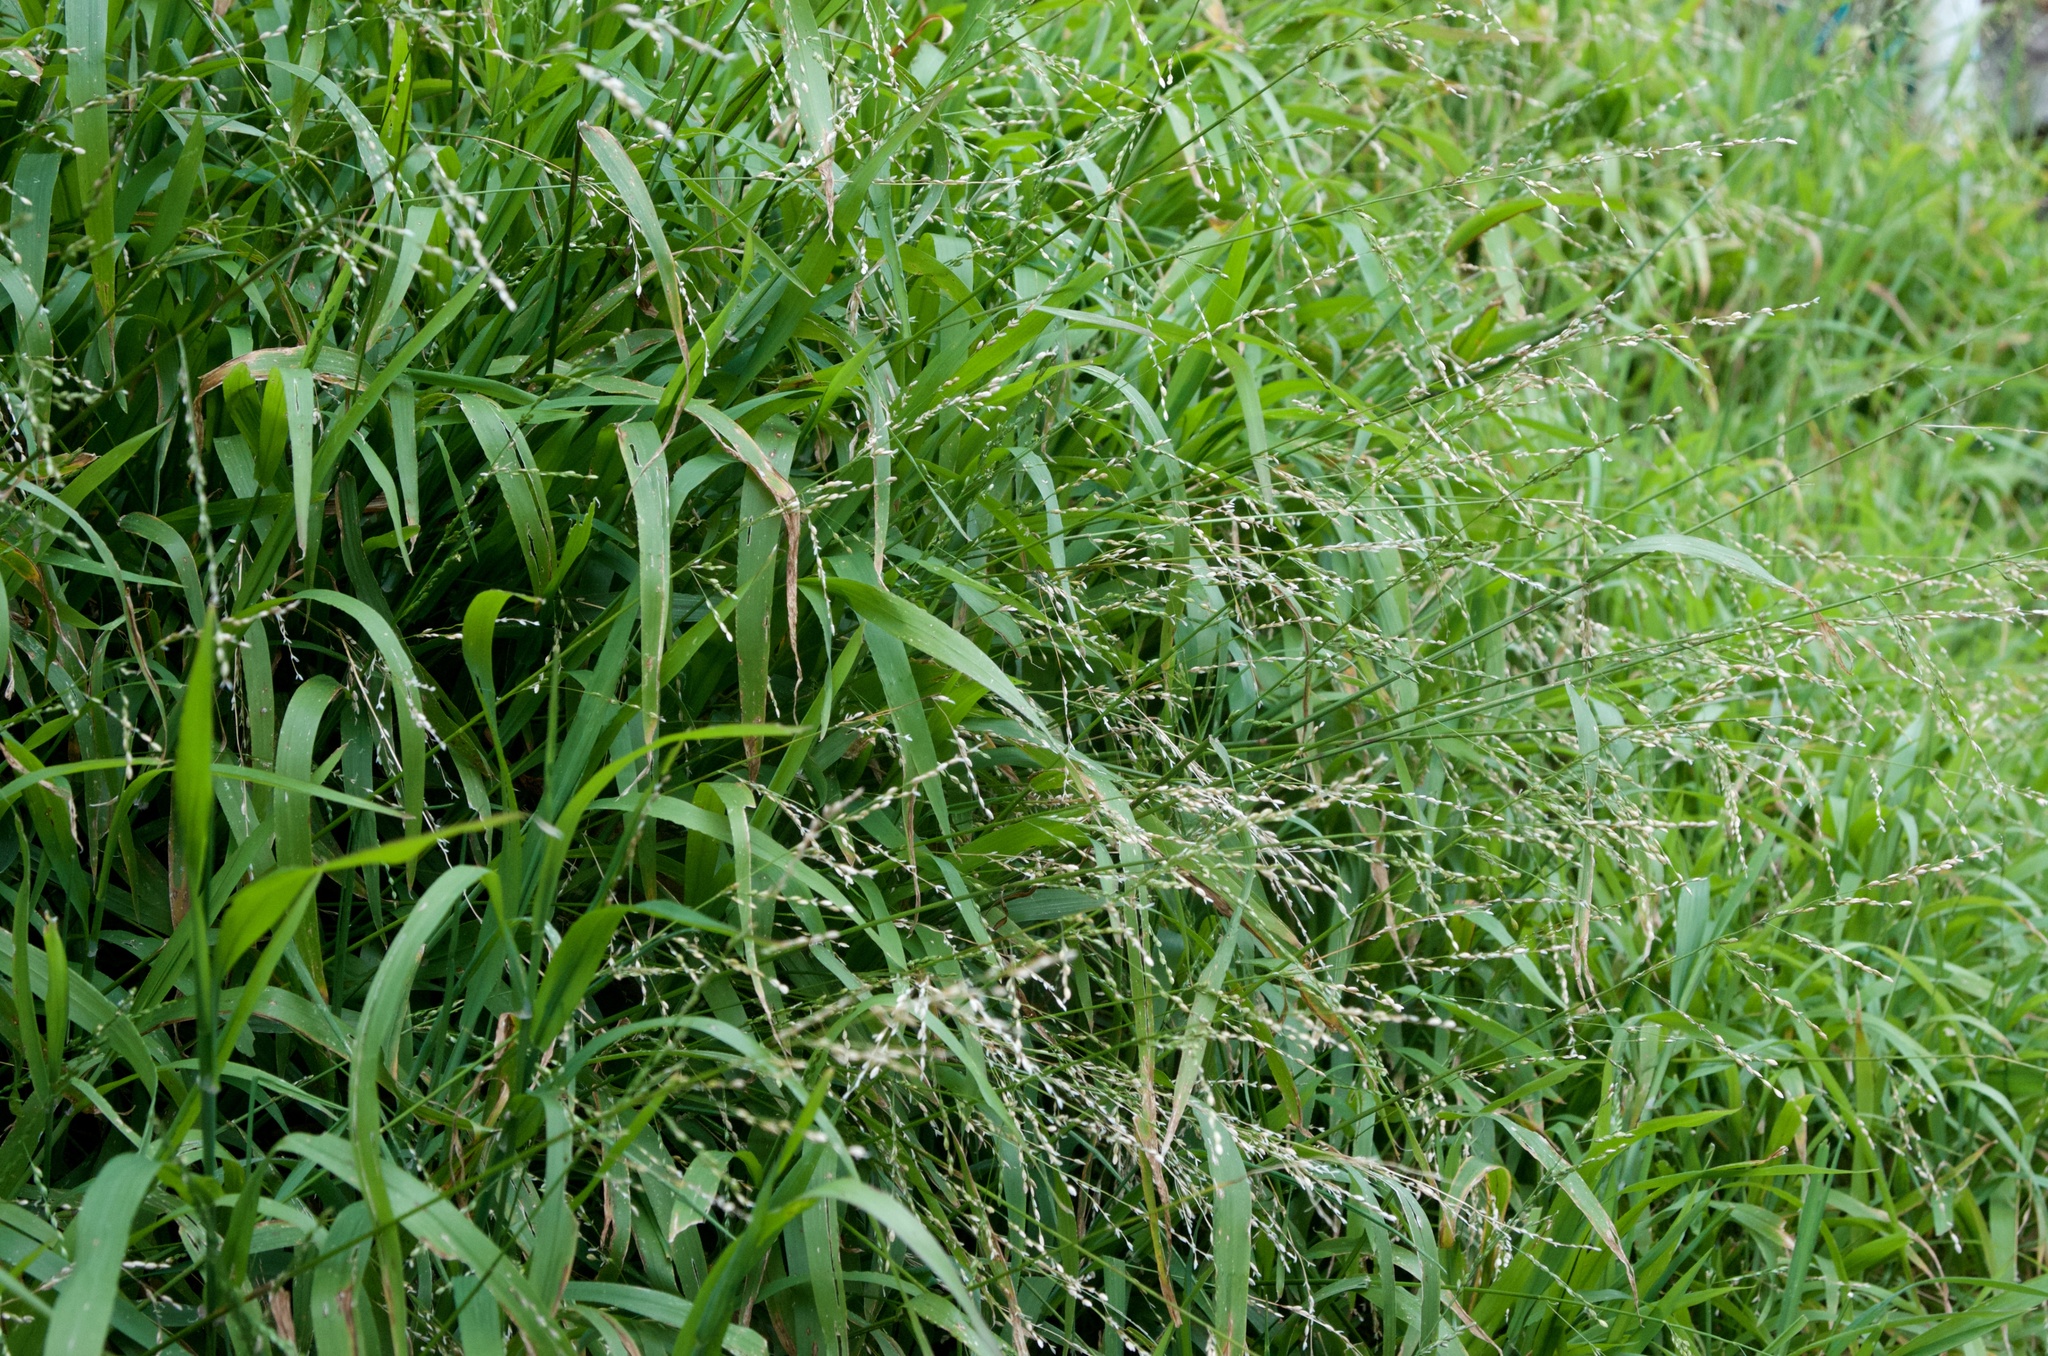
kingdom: Plantae
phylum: Tracheophyta
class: Liliopsida
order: Poales
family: Poaceae
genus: Ehrharta
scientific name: Ehrharta erecta
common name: Panic veldtgrass
